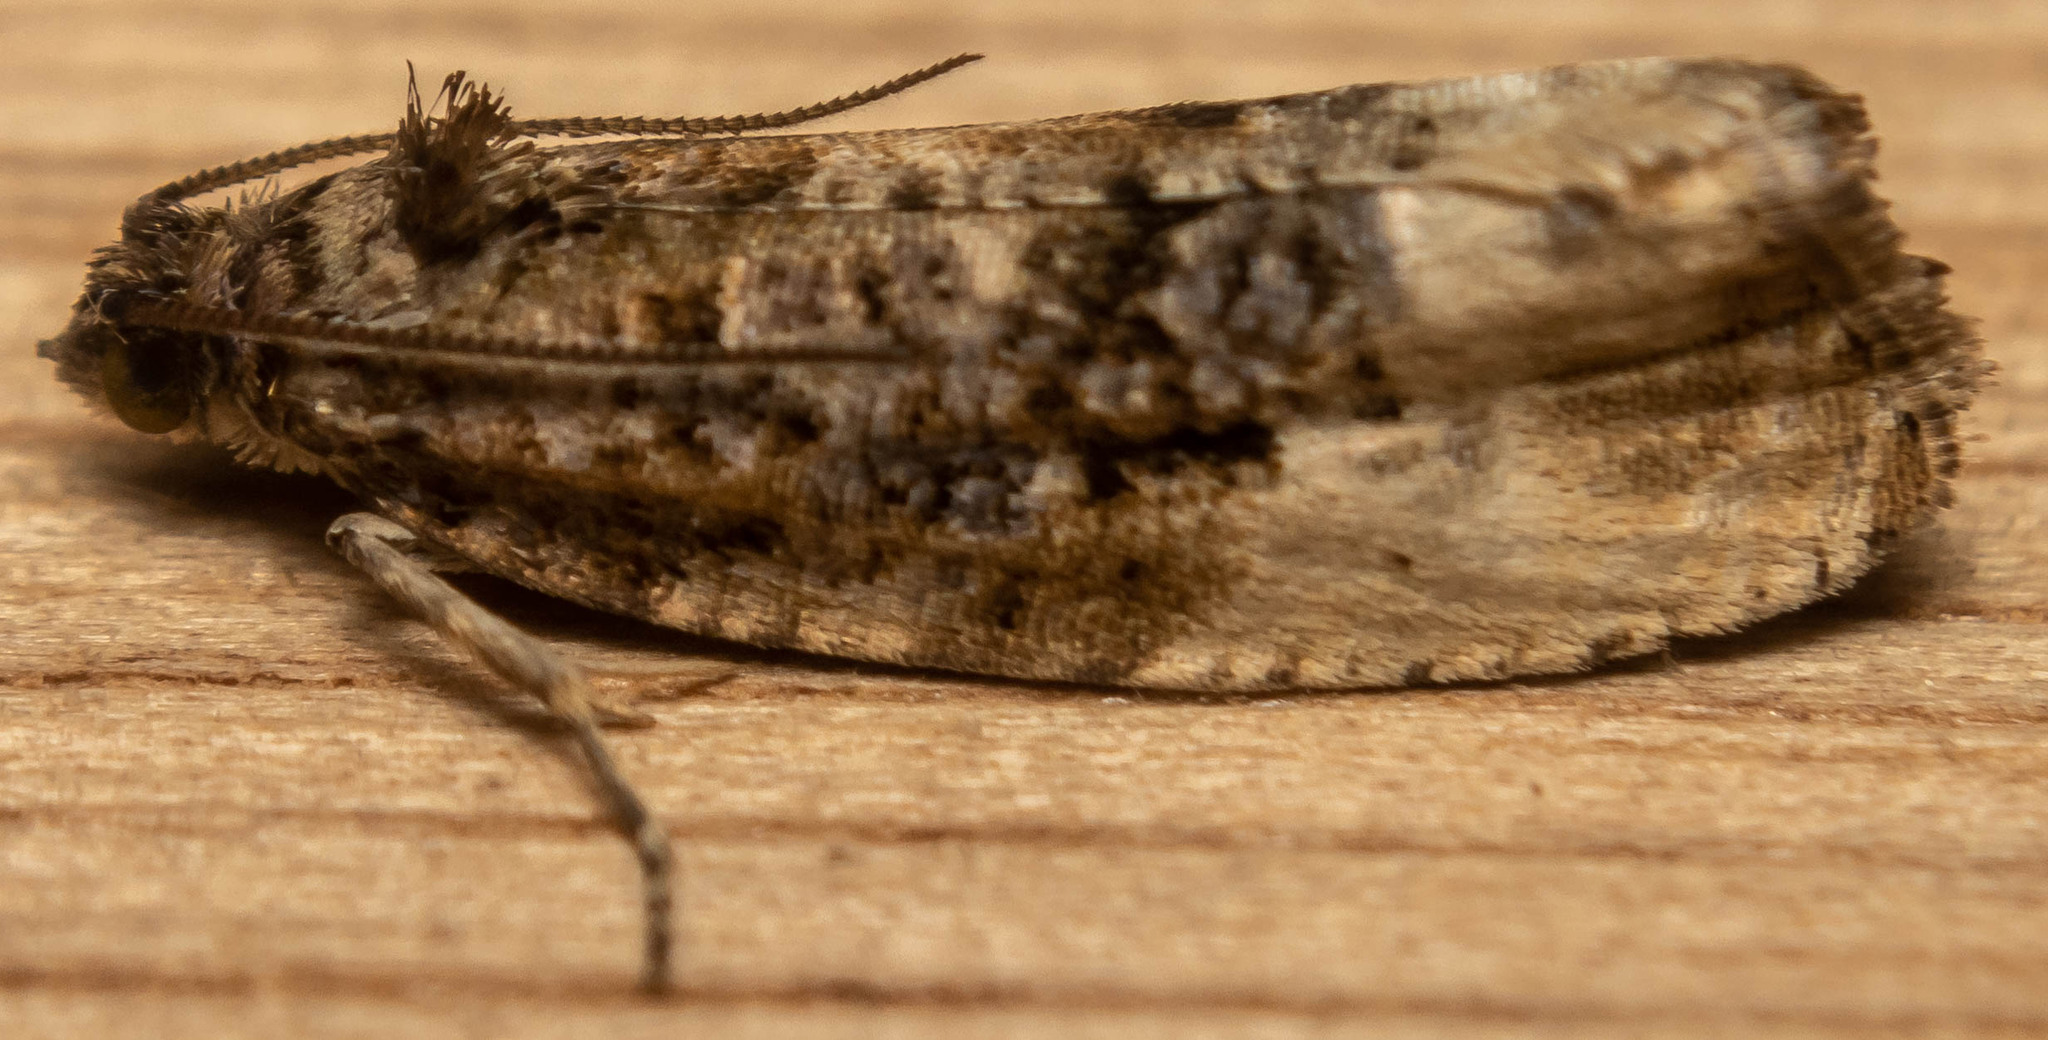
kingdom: Animalia
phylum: Arthropoda
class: Insecta
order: Lepidoptera
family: Tortricidae
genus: Hedya
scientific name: Hedya nubiferana
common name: Marbled orchard tortrix
